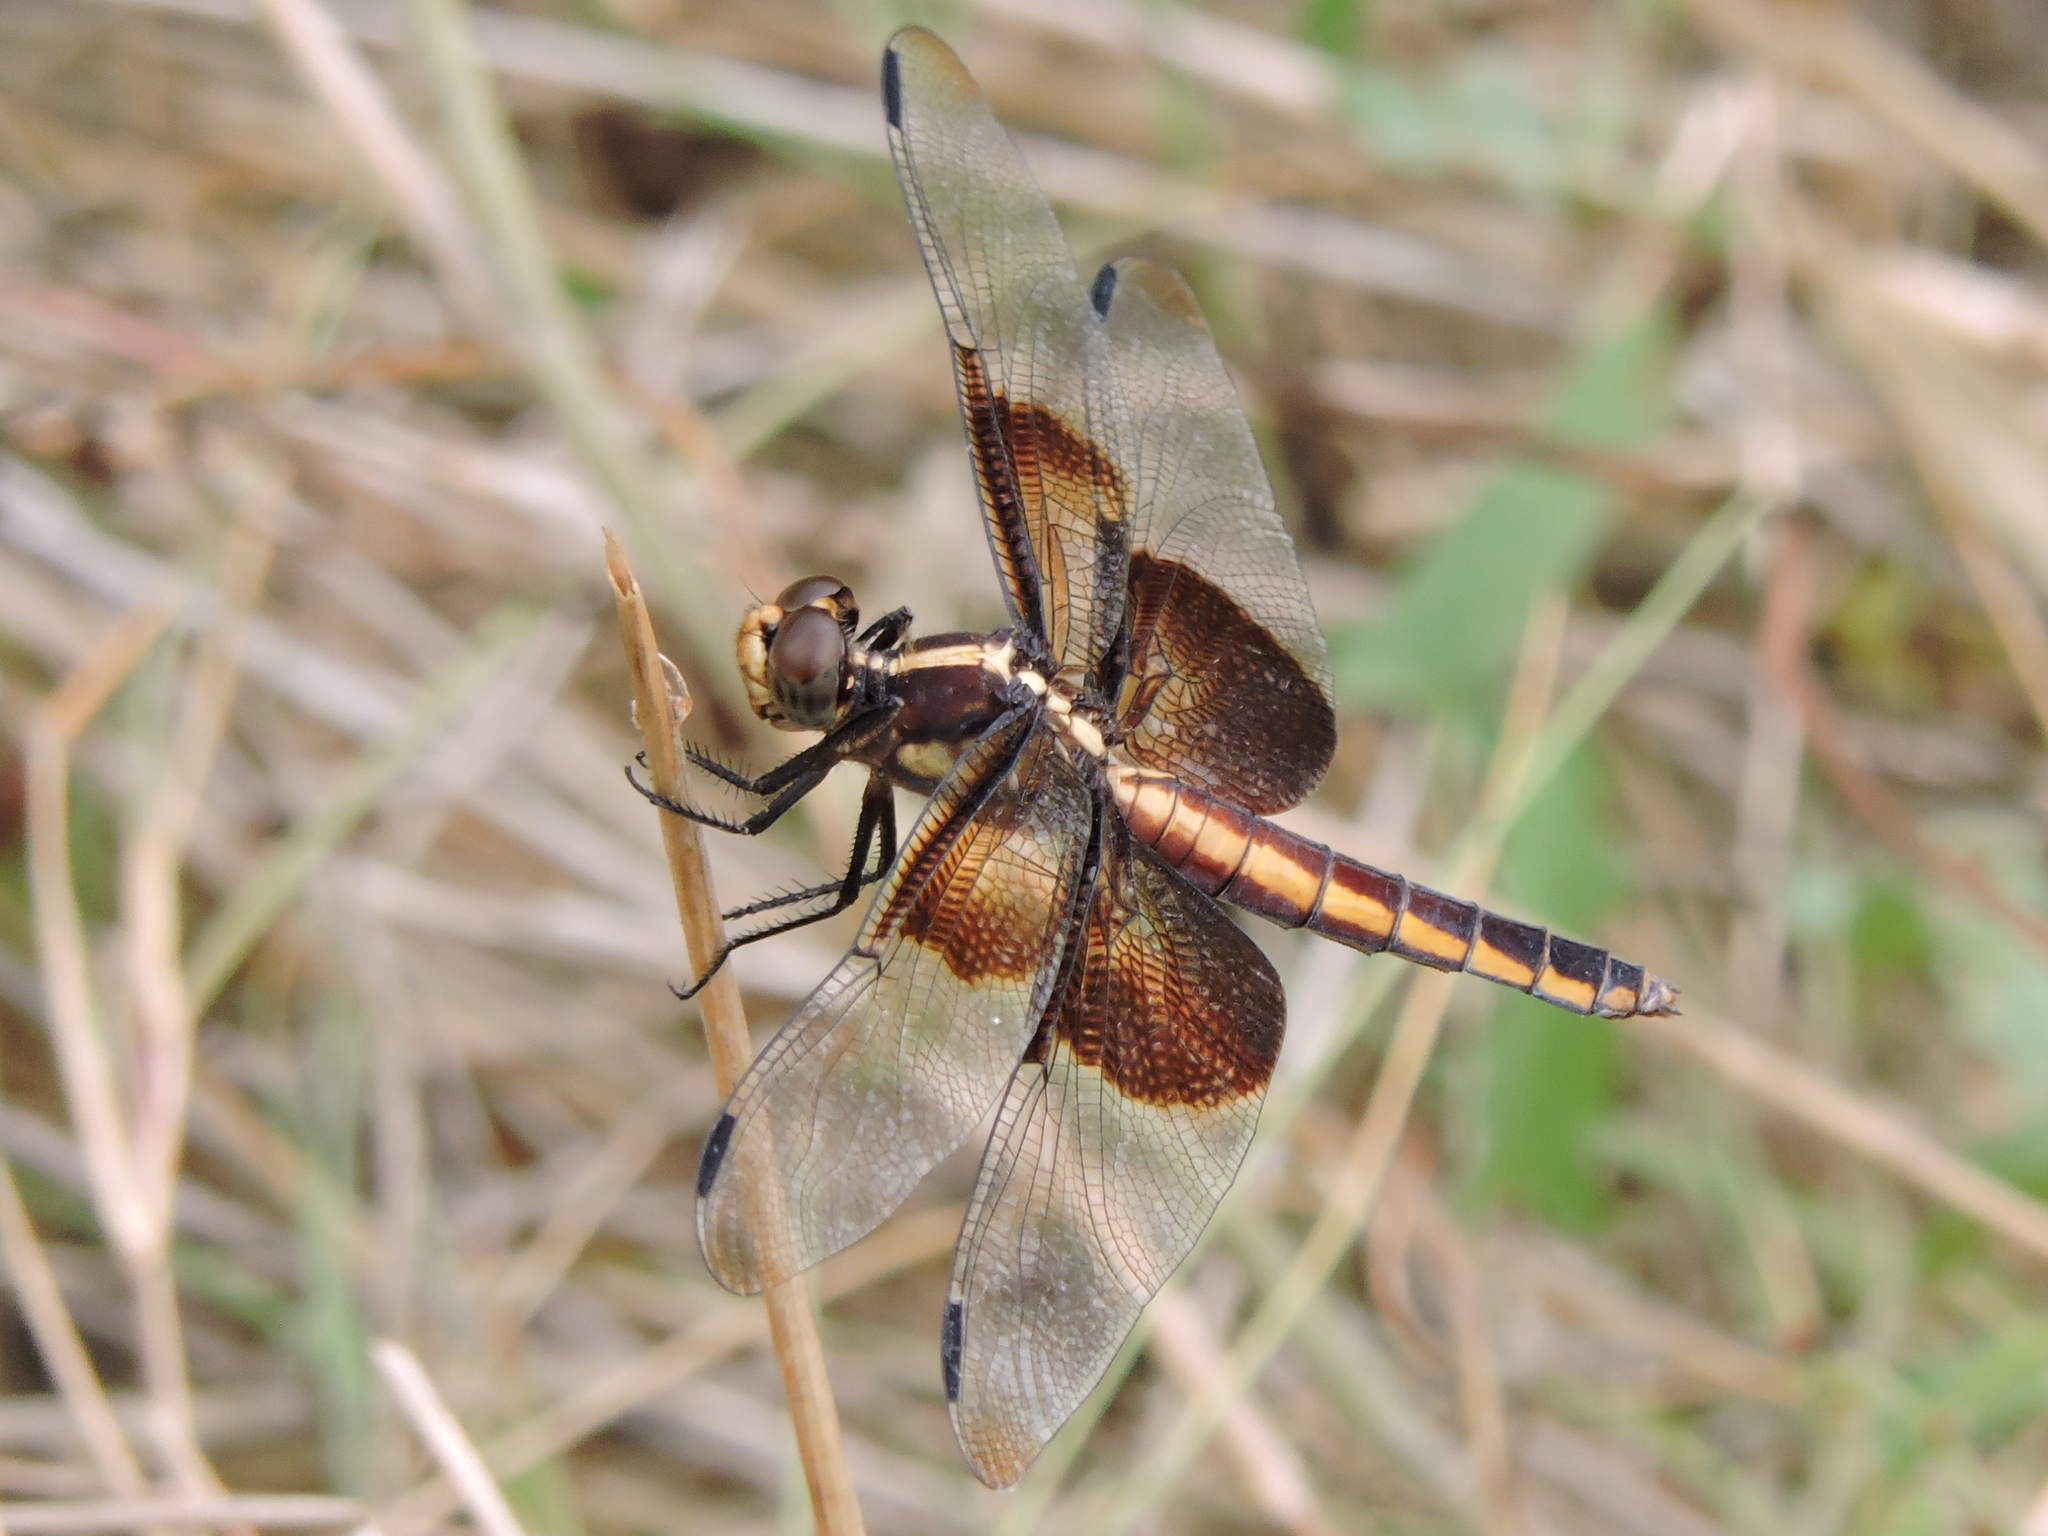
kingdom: Animalia
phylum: Arthropoda
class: Insecta
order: Odonata
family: Libellulidae
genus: Libellula
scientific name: Libellula luctuosa
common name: Widow skimmer
